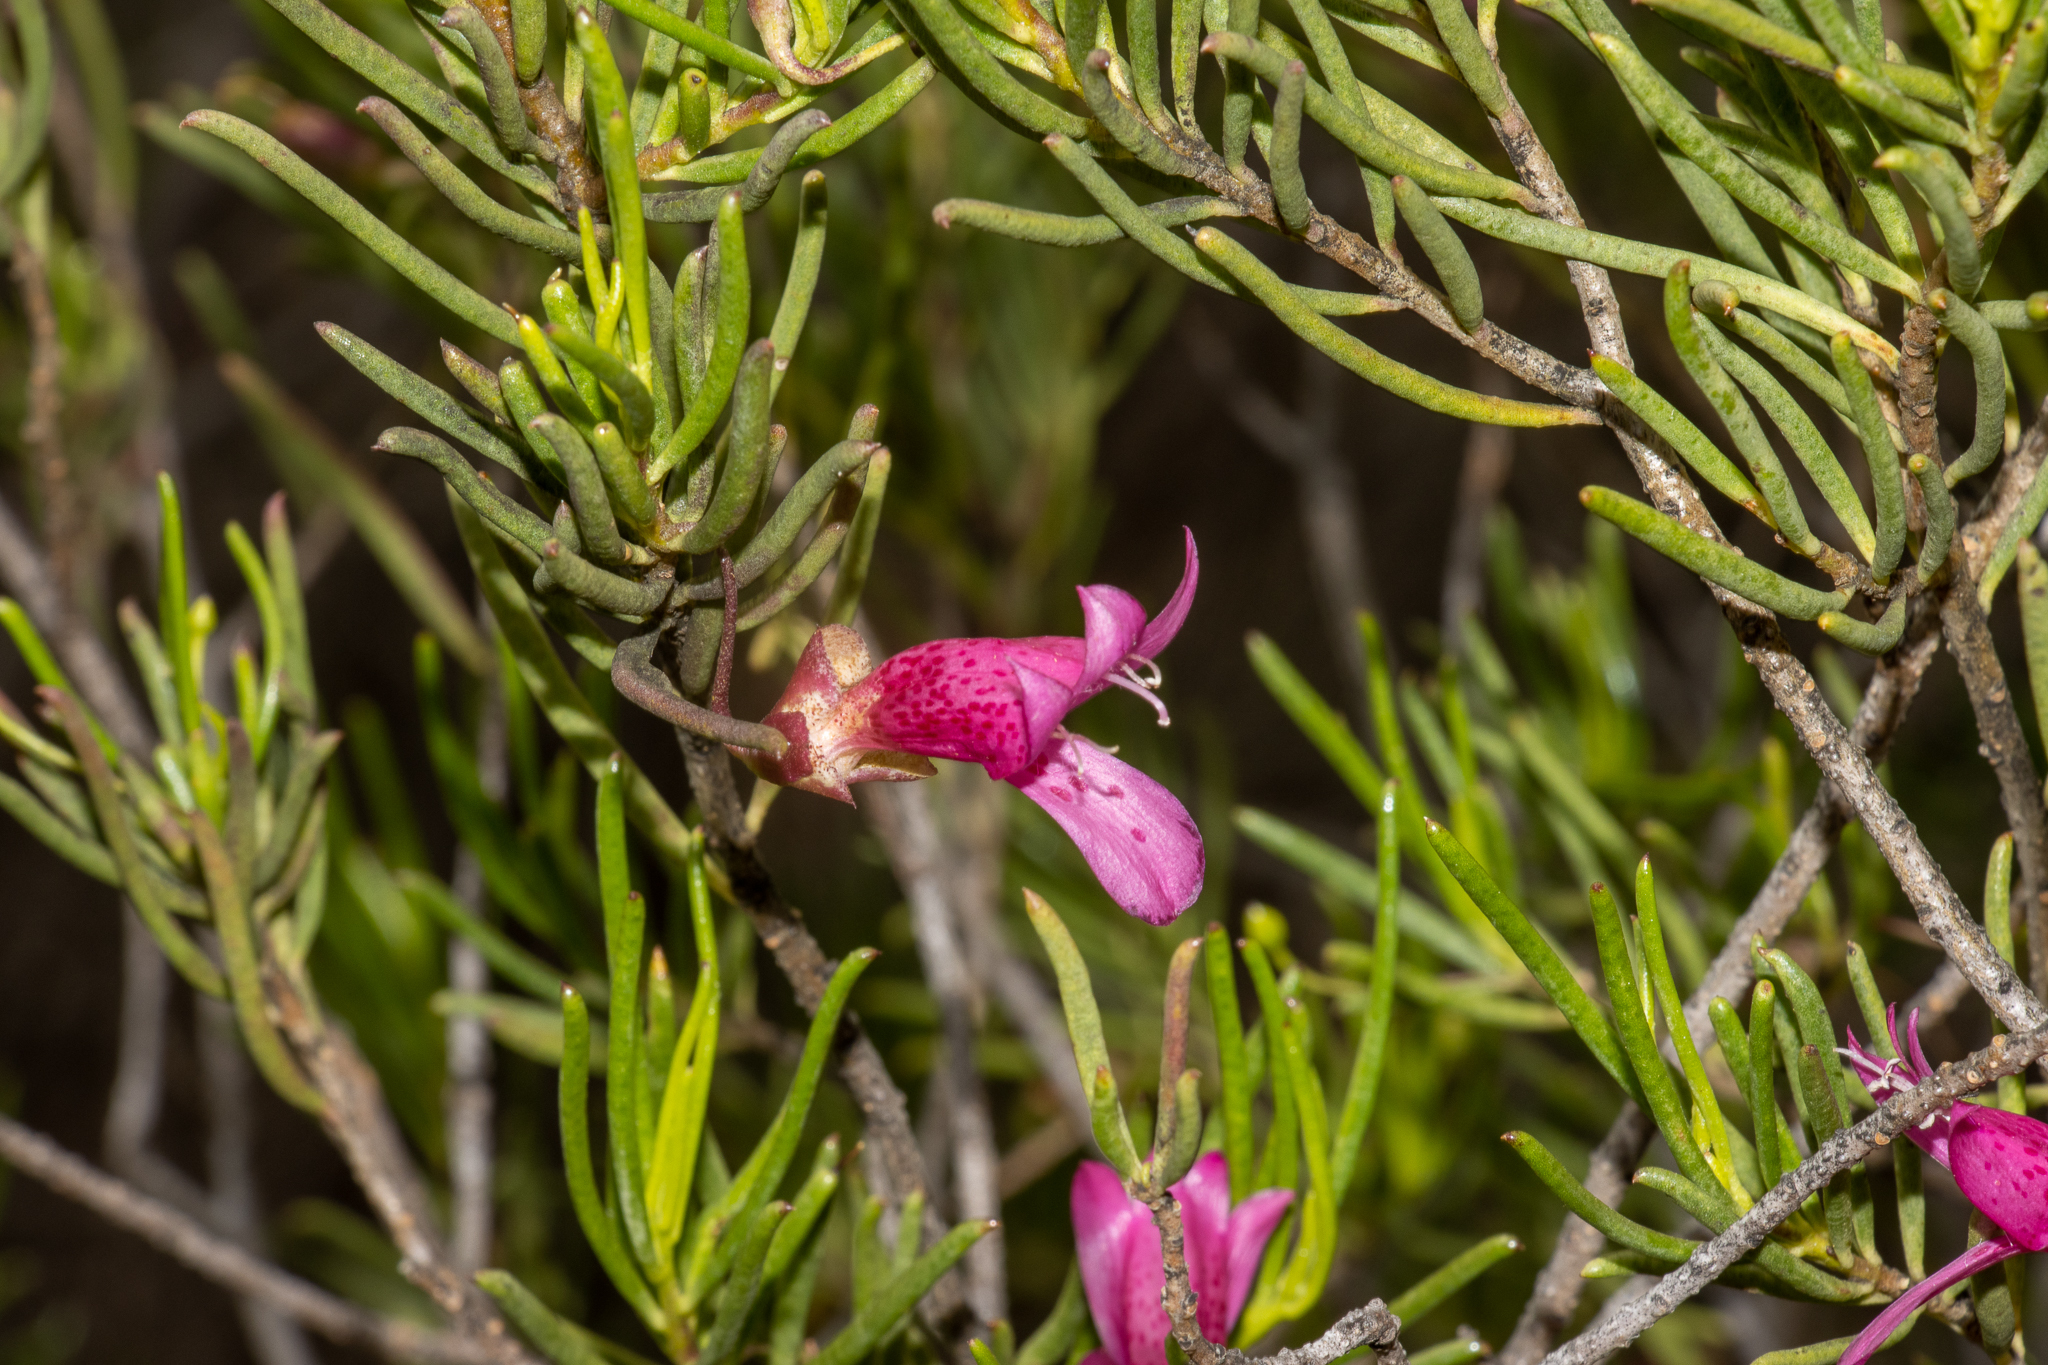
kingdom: Plantae
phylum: Tracheophyta
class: Magnoliopsida
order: Lamiales
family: Scrophulariaceae
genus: Eremophila
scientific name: Eremophila alternifolia
